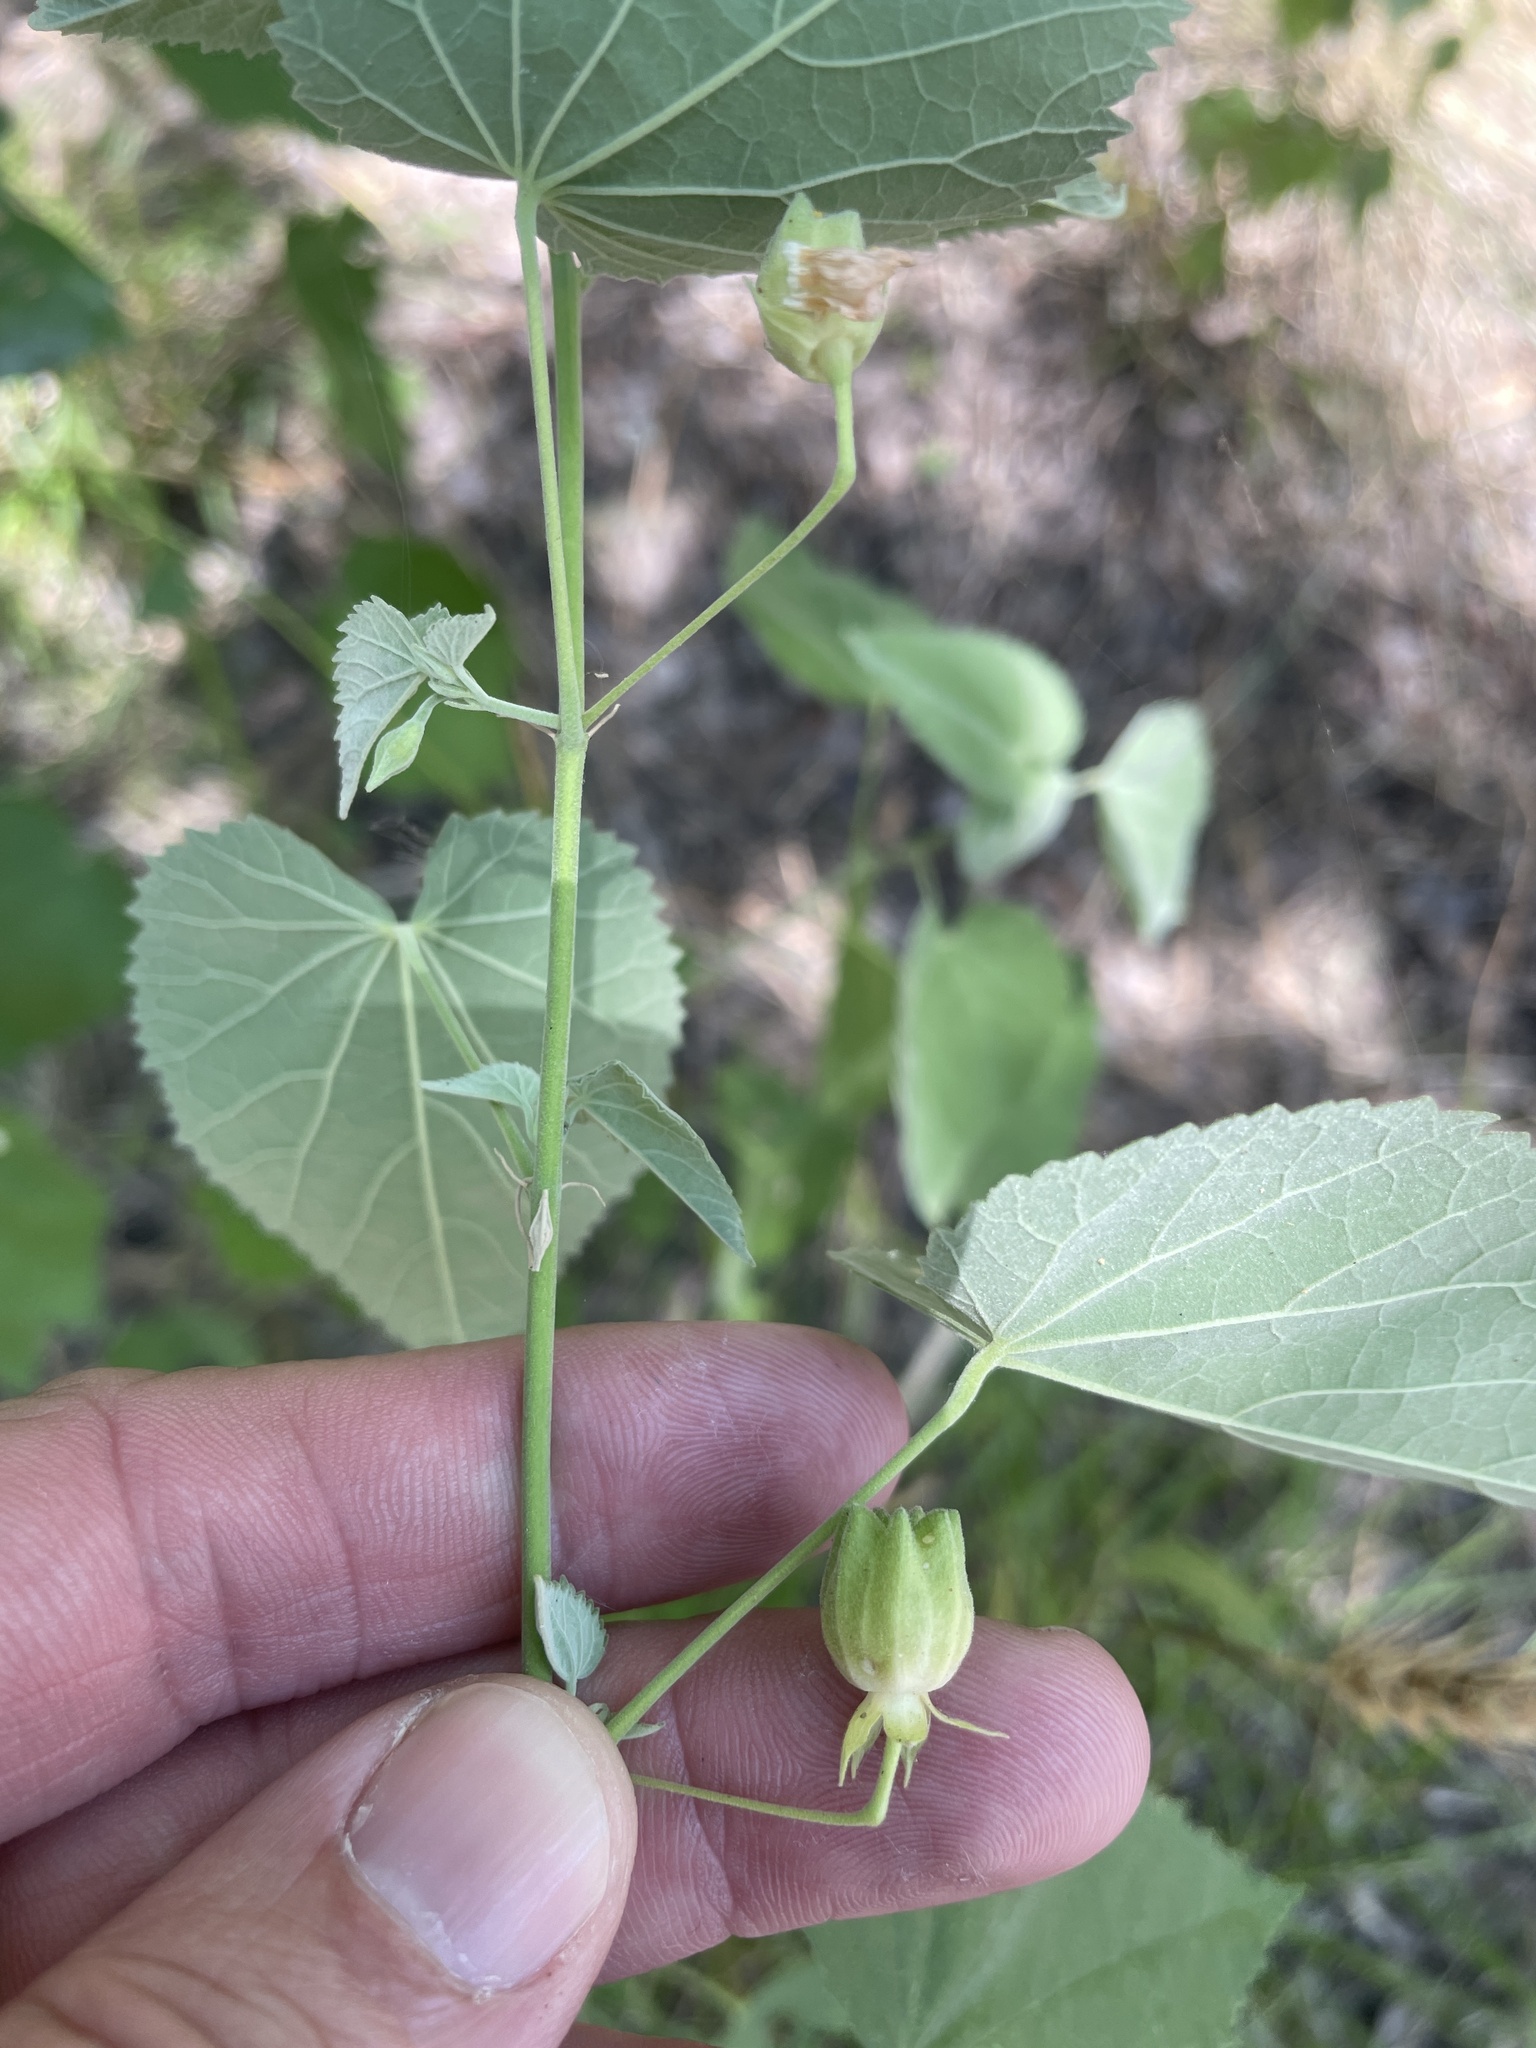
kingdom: Plantae
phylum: Tracheophyta
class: Magnoliopsida
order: Malvales
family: Malvaceae
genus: Abutilon
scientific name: Abutilon fruticosum
